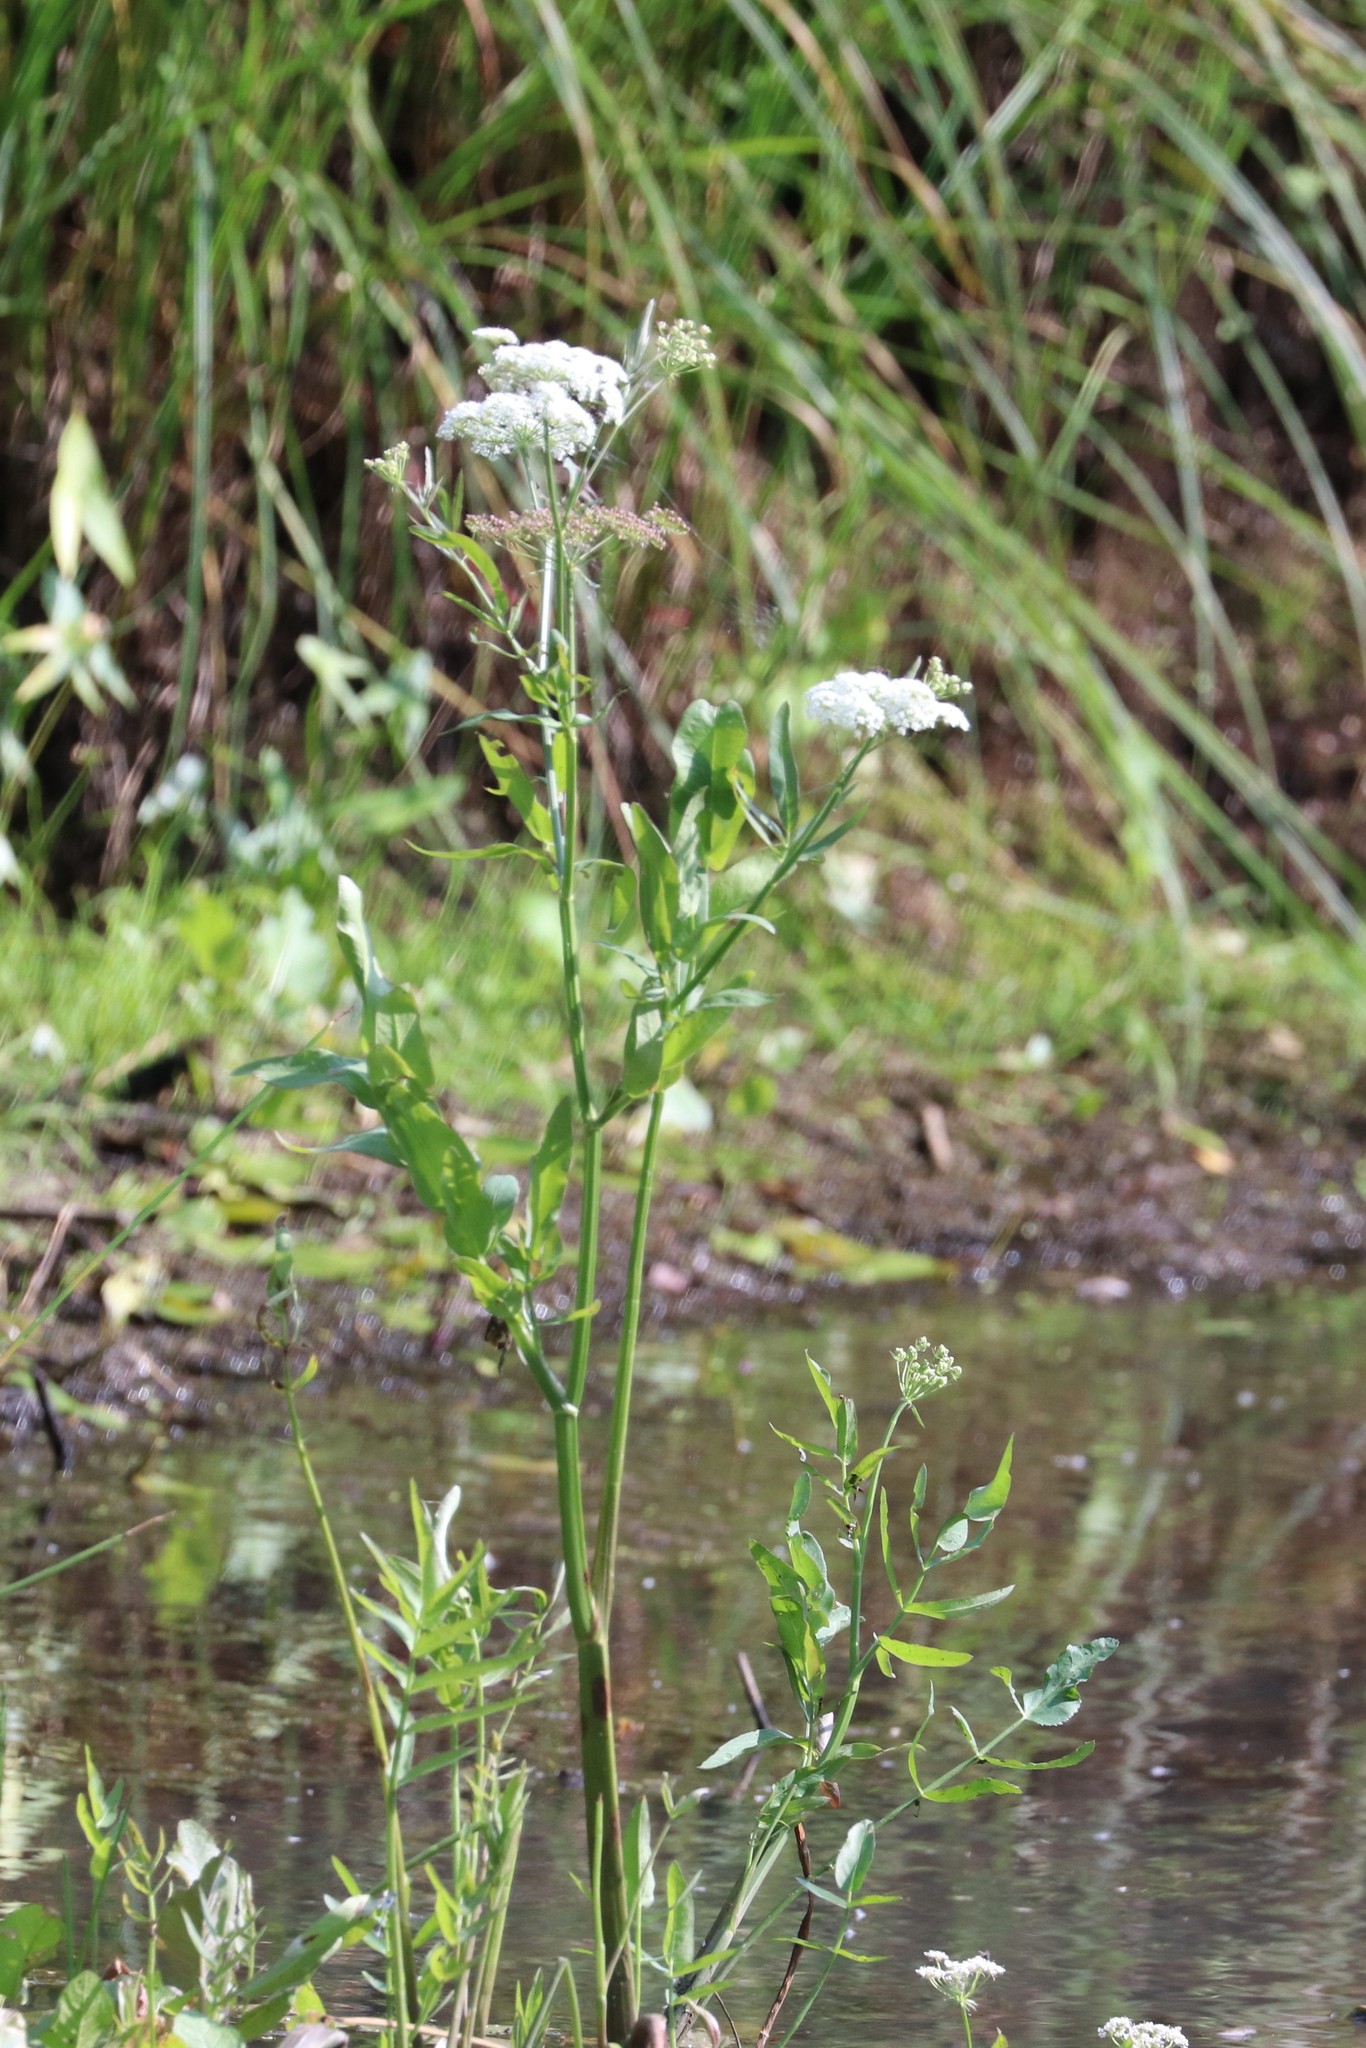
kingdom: Plantae
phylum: Tracheophyta
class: Magnoliopsida
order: Apiales
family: Apiaceae
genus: Sium
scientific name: Sium latifolium
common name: Greater water-parsnip
